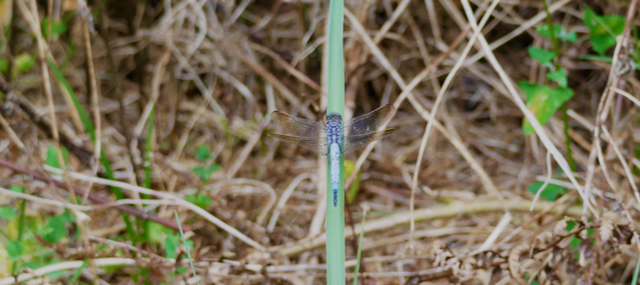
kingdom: Animalia
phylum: Arthropoda
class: Insecta
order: Odonata
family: Libellulidae
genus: Orthetrum
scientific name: Orthetrum caledonicum
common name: Blue skimmer
